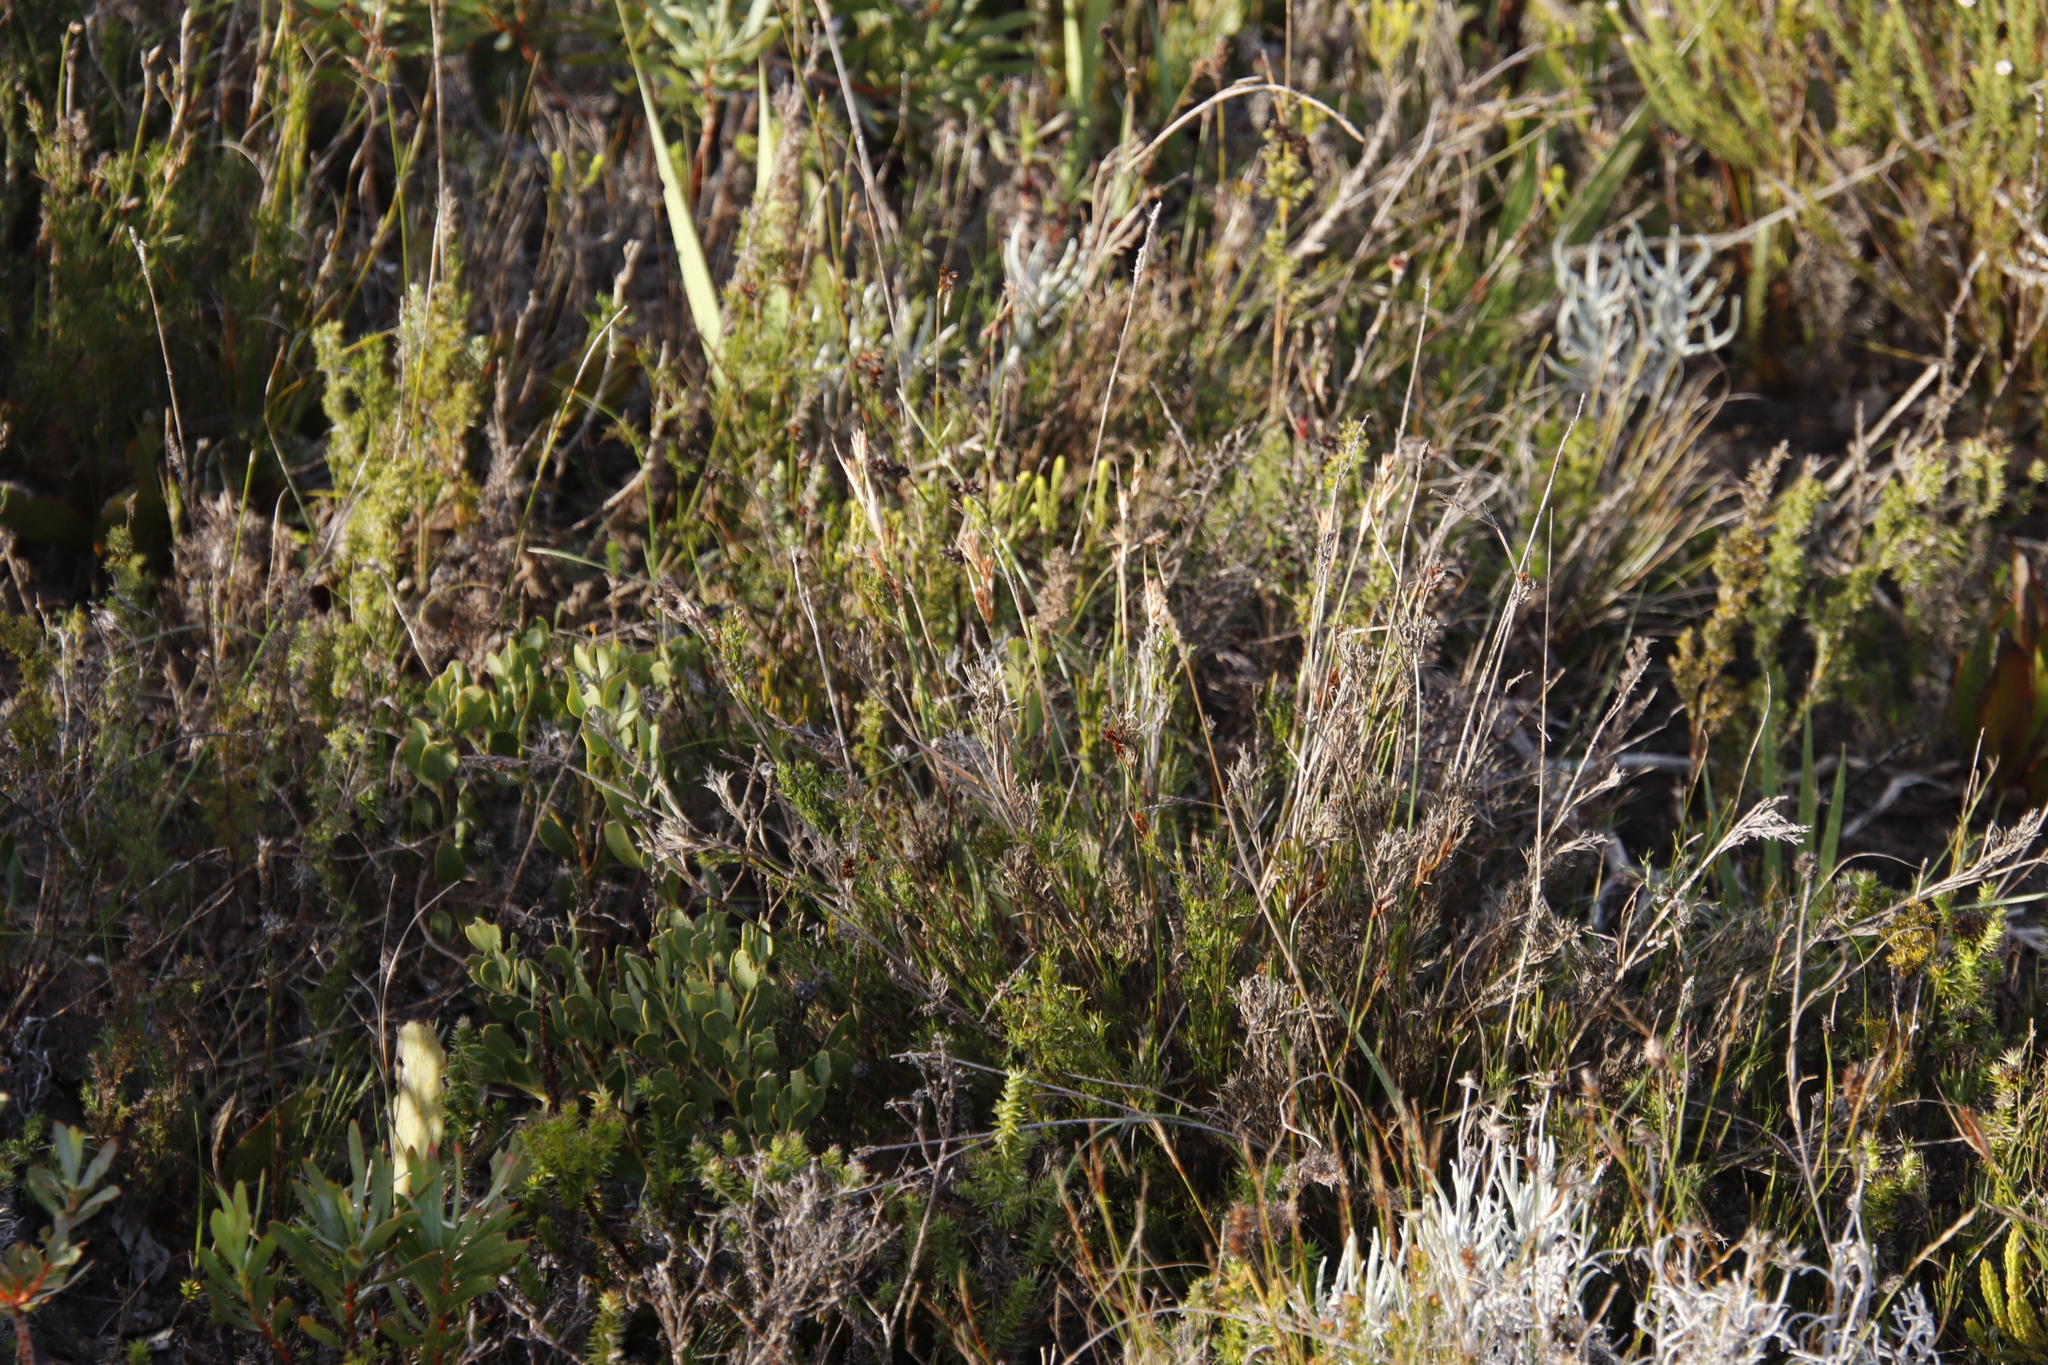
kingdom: Plantae
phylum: Tracheophyta
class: Liliopsida
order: Poales
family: Restionaceae
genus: Thamnochortus
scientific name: Thamnochortus fruticosus
